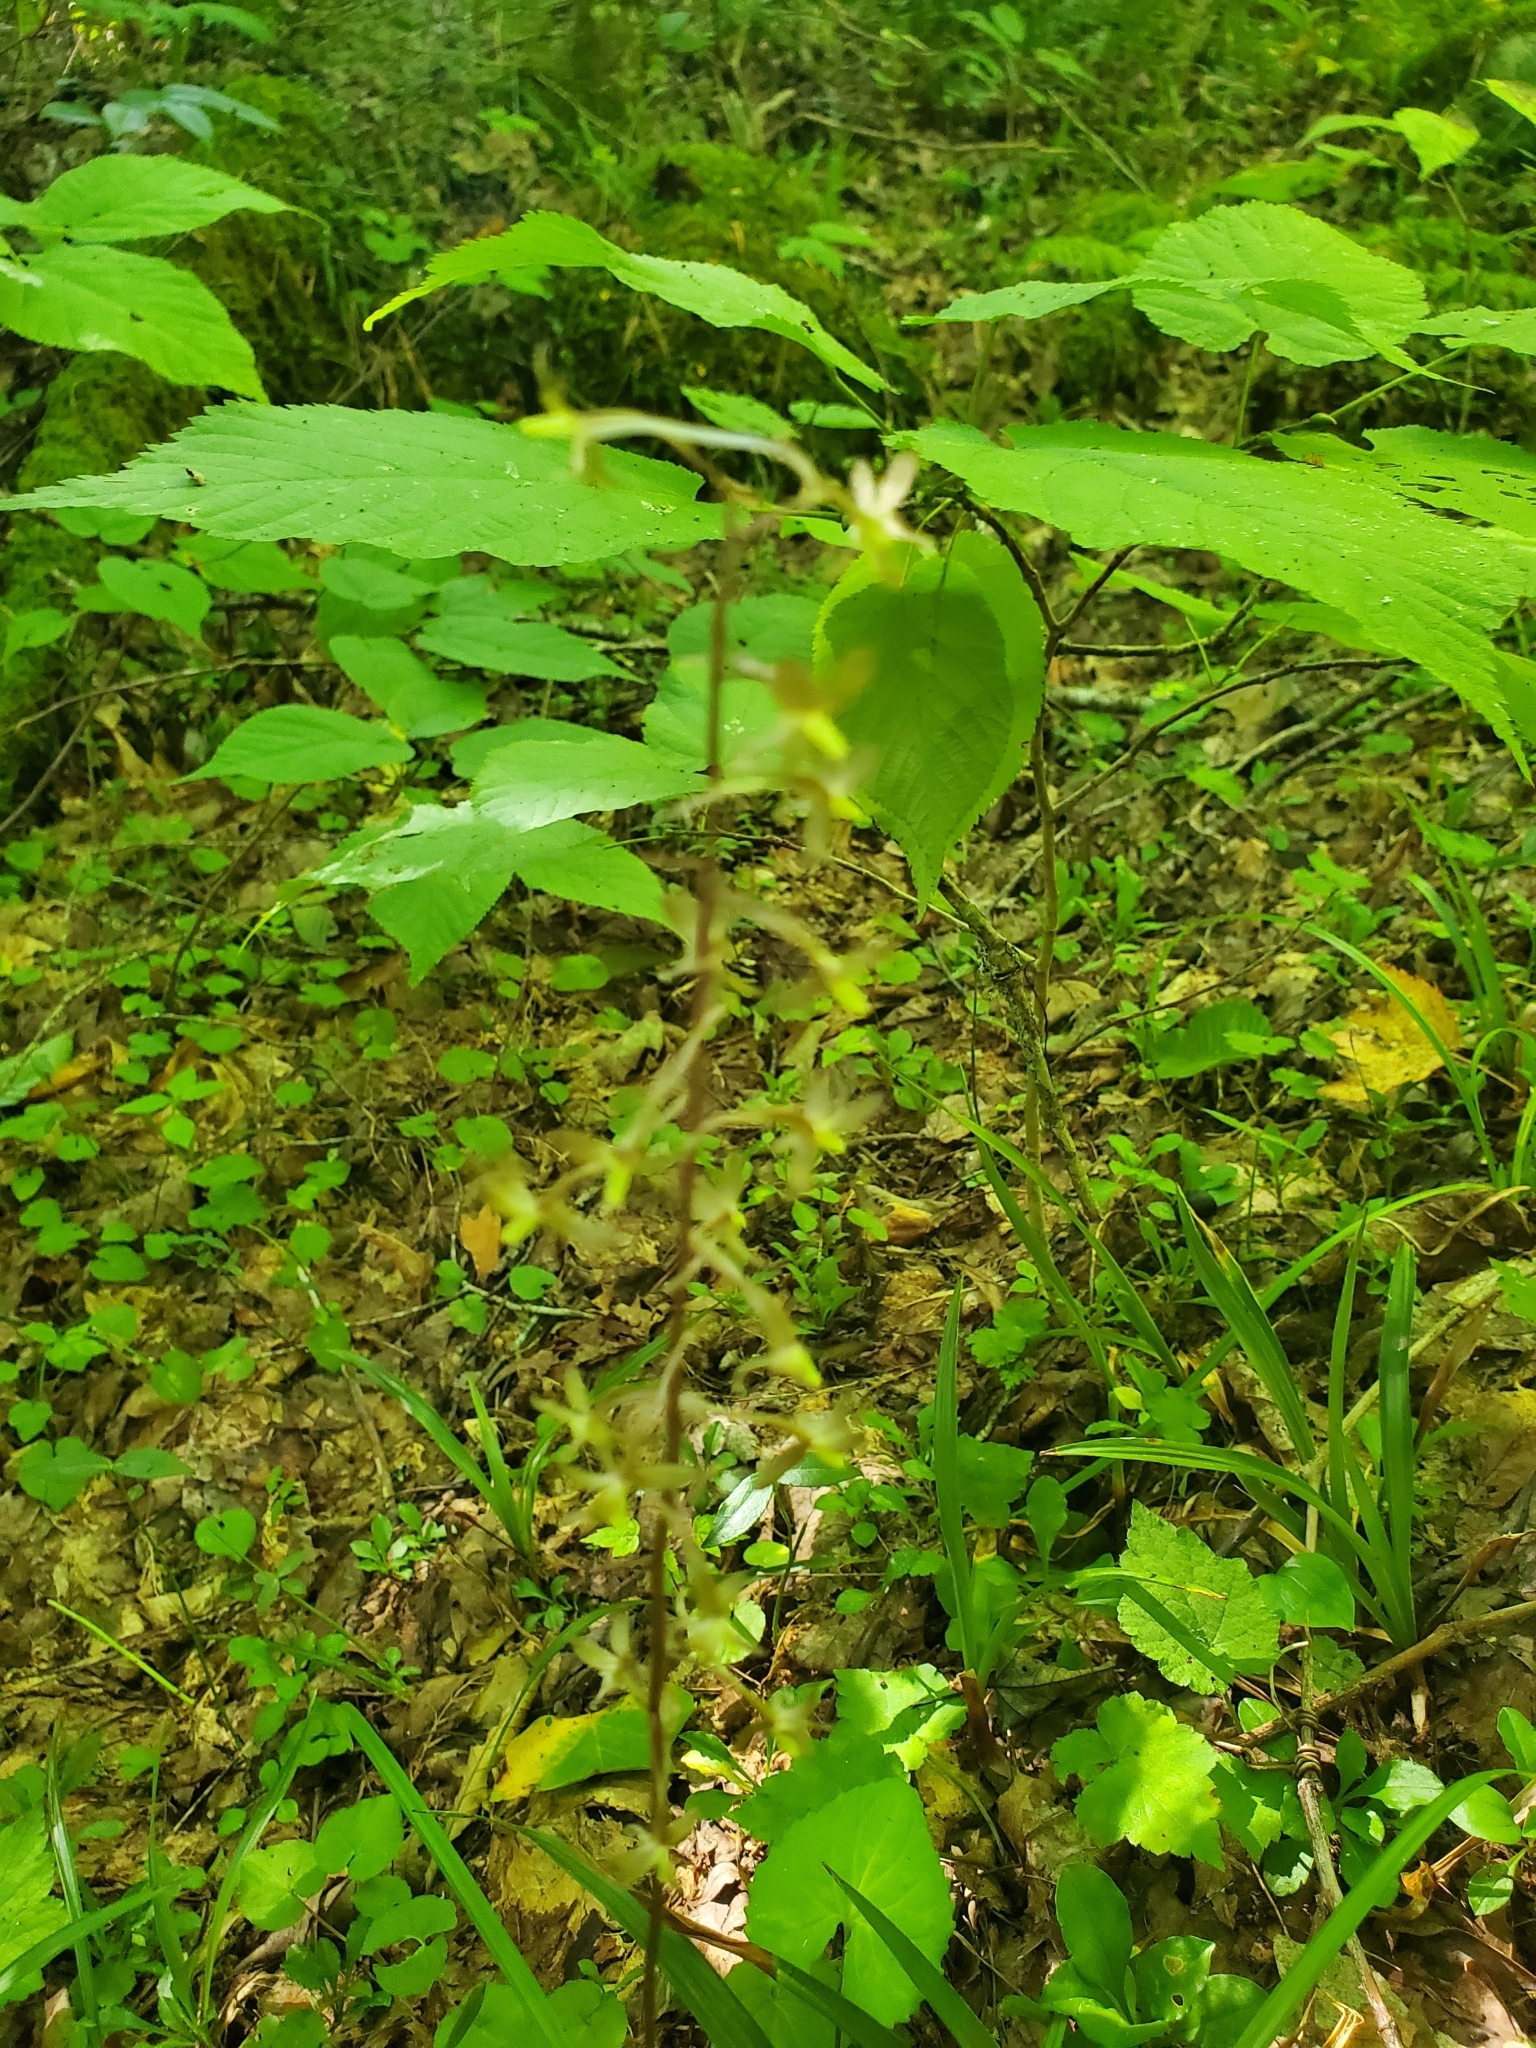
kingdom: Plantae
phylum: Tracheophyta
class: Liliopsida
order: Asparagales
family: Orchidaceae
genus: Tipularia
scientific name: Tipularia discolor
